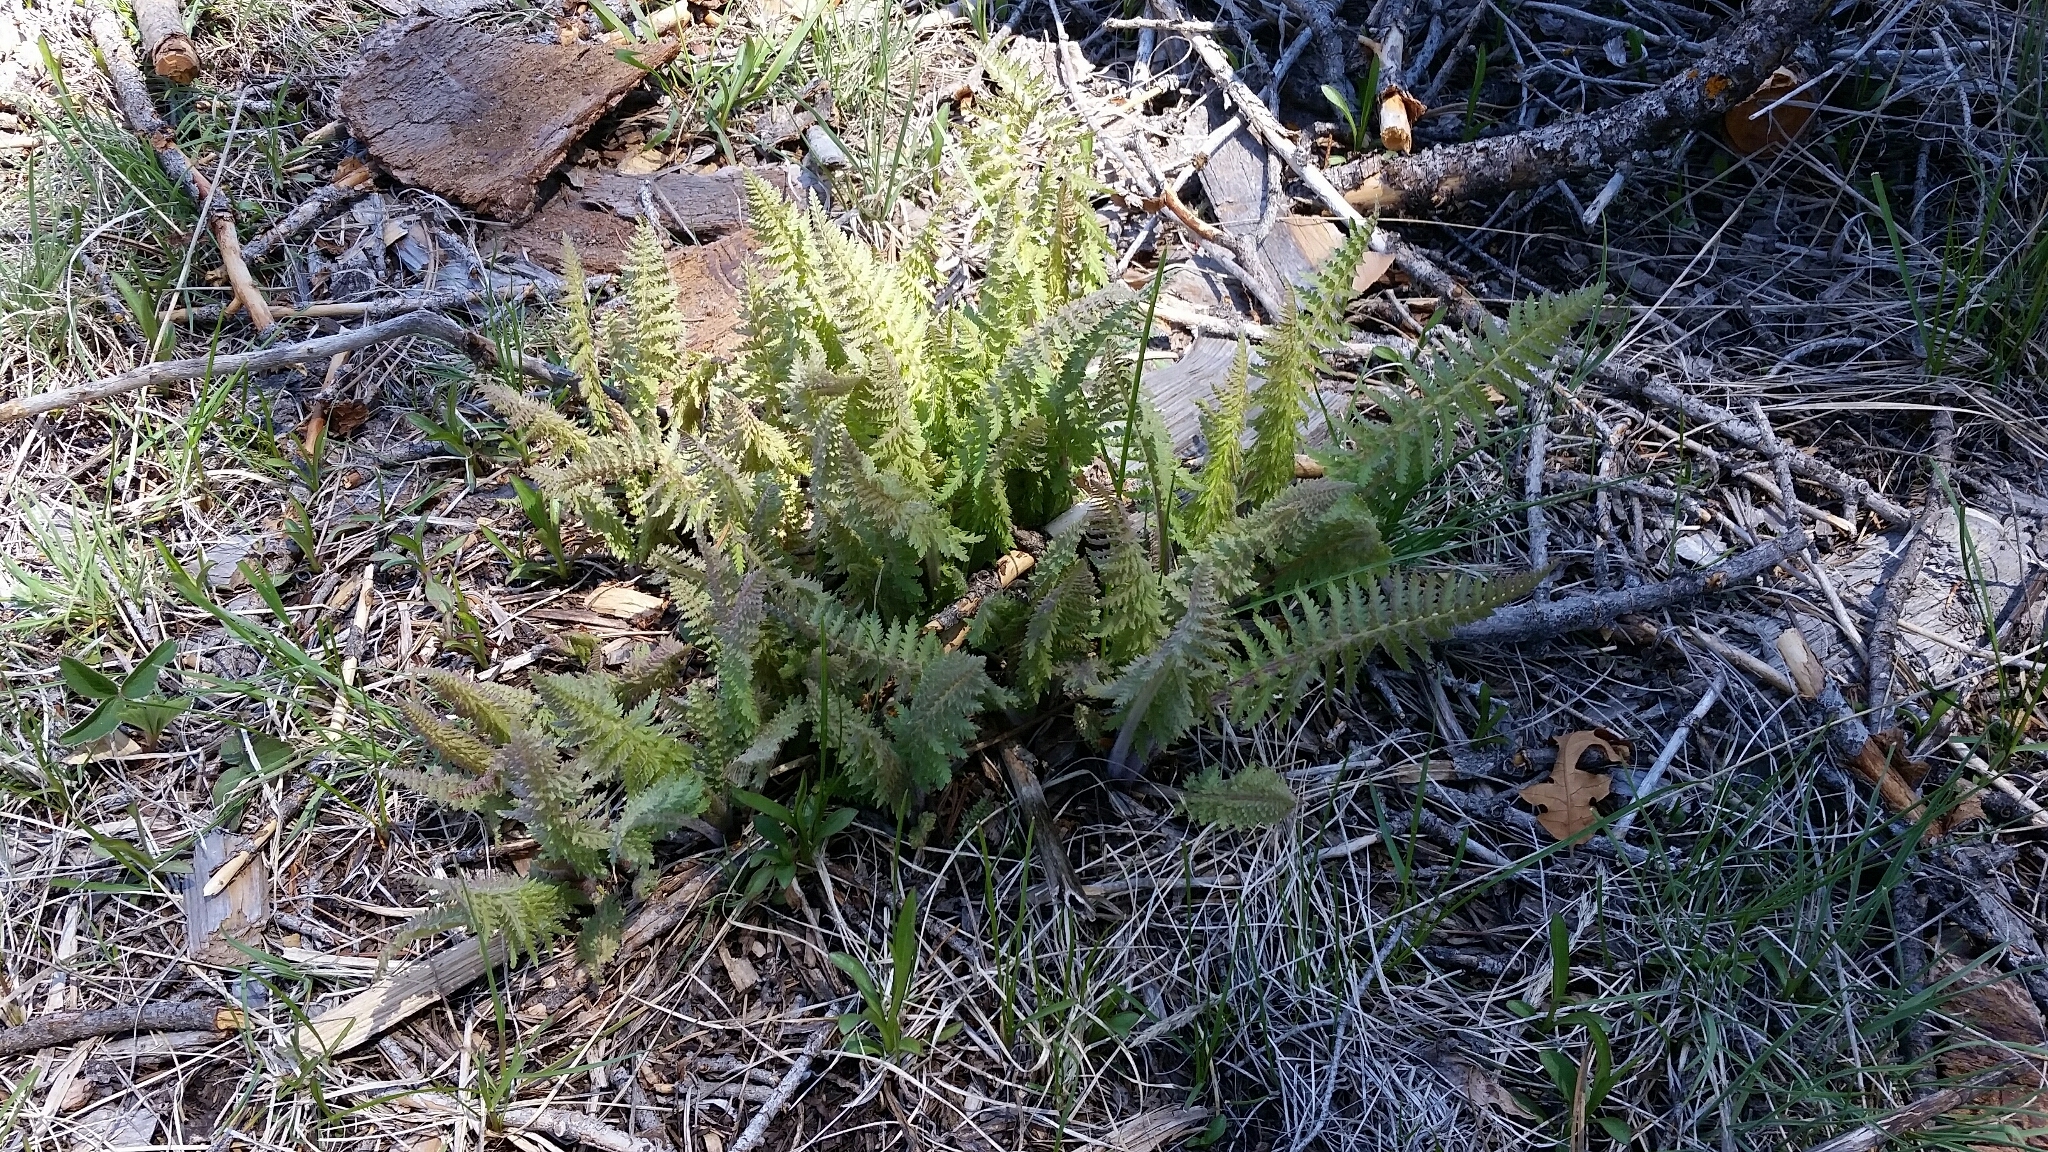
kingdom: Plantae
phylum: Tracheophyta
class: Magnoliopsida
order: Lamiales
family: Orobanchaceae
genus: Pedicularis
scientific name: Pedicularis procera
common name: Gray's lousewort
